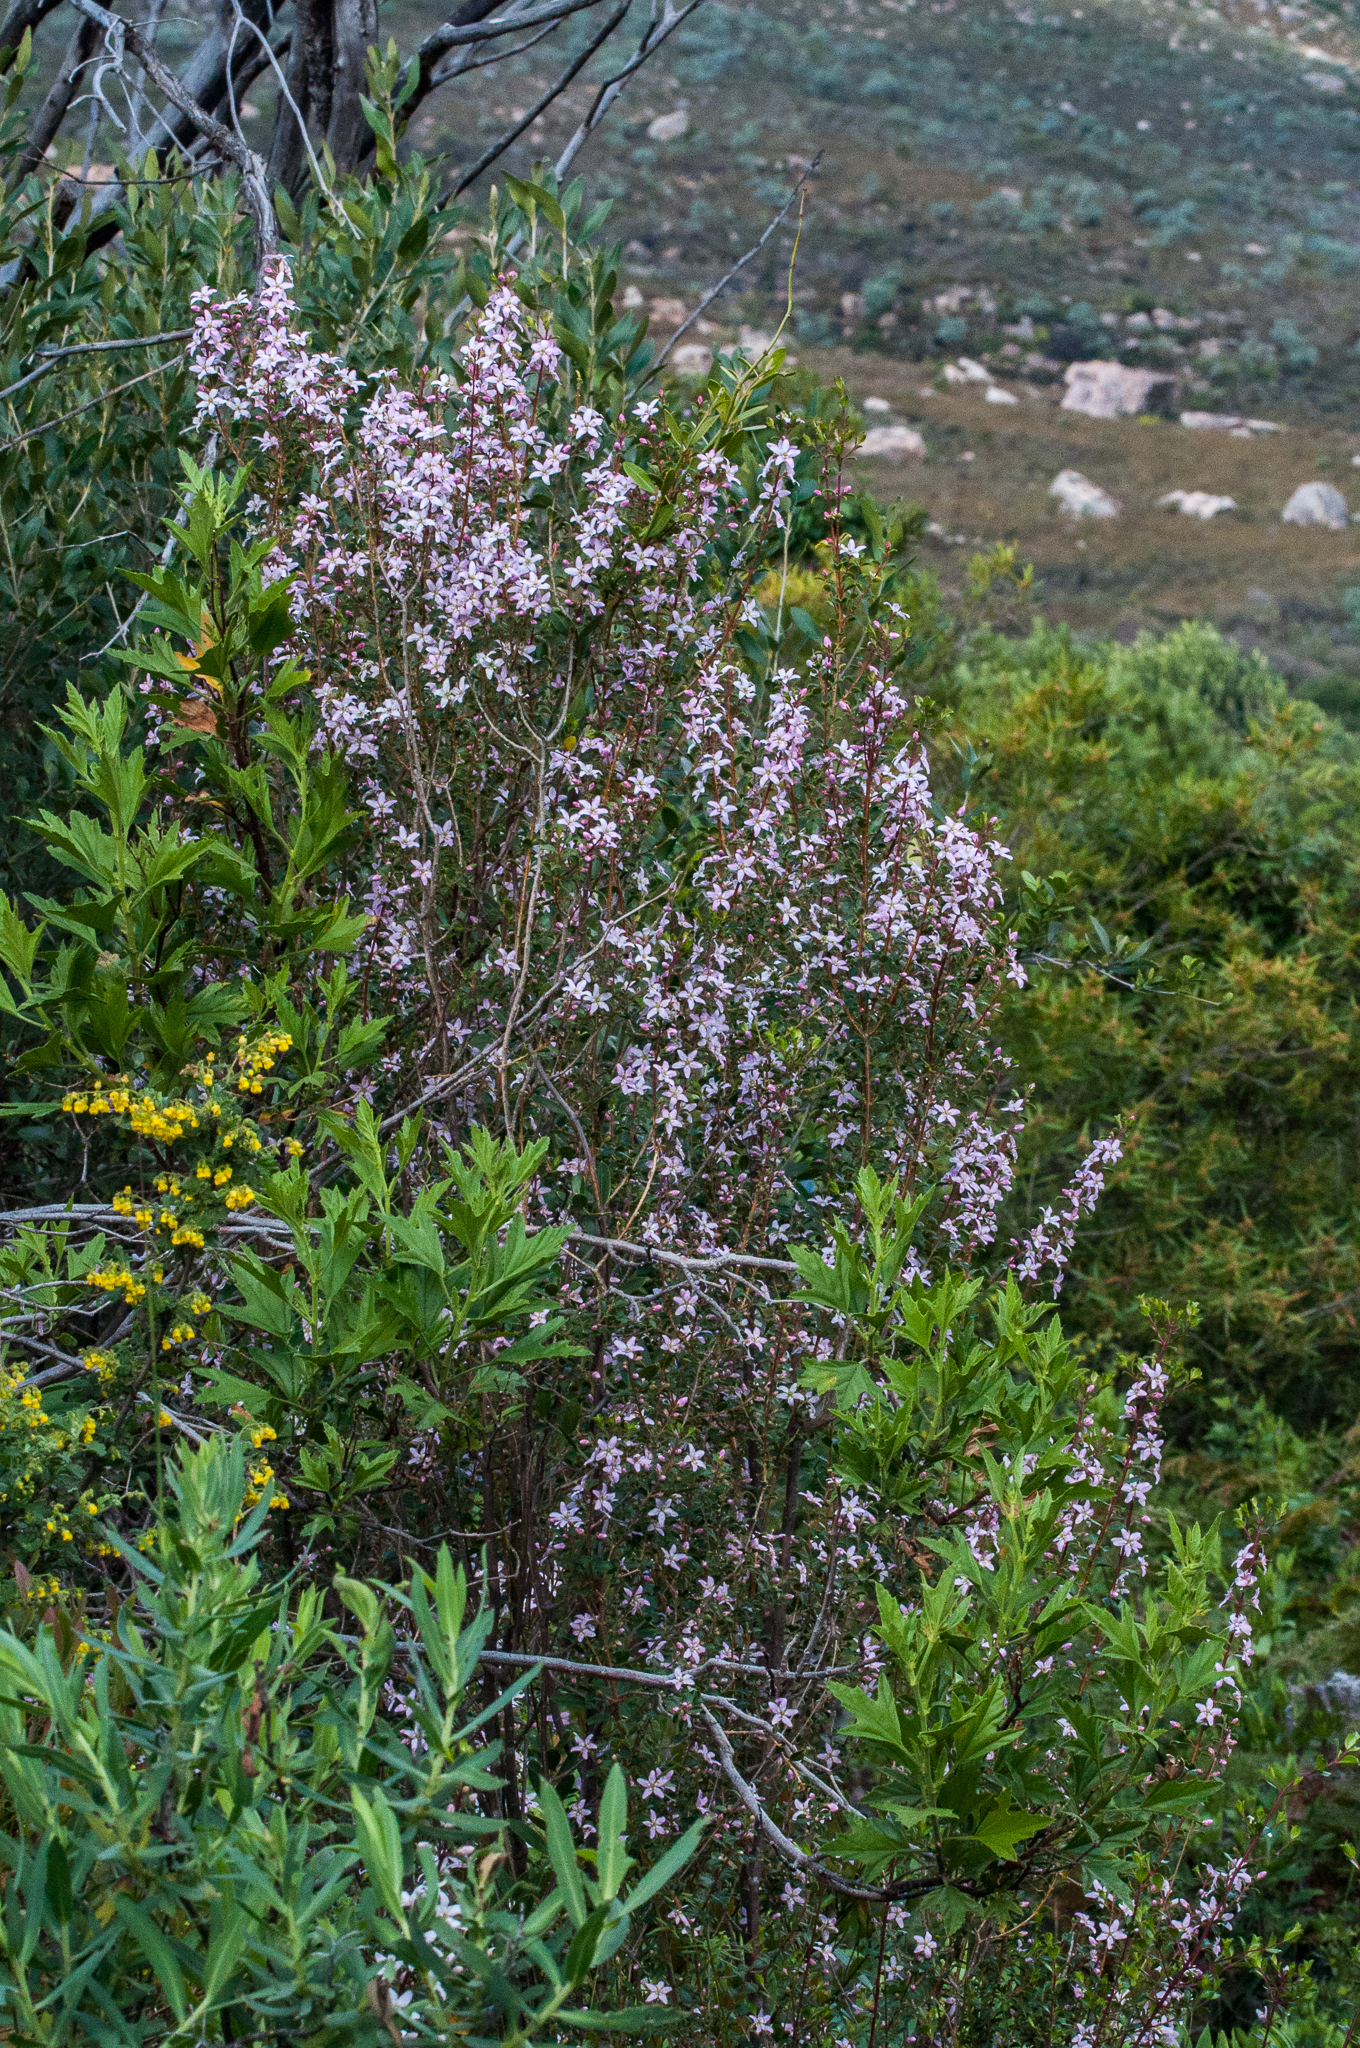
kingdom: Plantae
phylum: Tracheophyta
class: Magnoliopsida
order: Sapindales
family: Rutaceae
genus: Agathosma
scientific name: Agathosma betulina
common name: Mountain buchu
